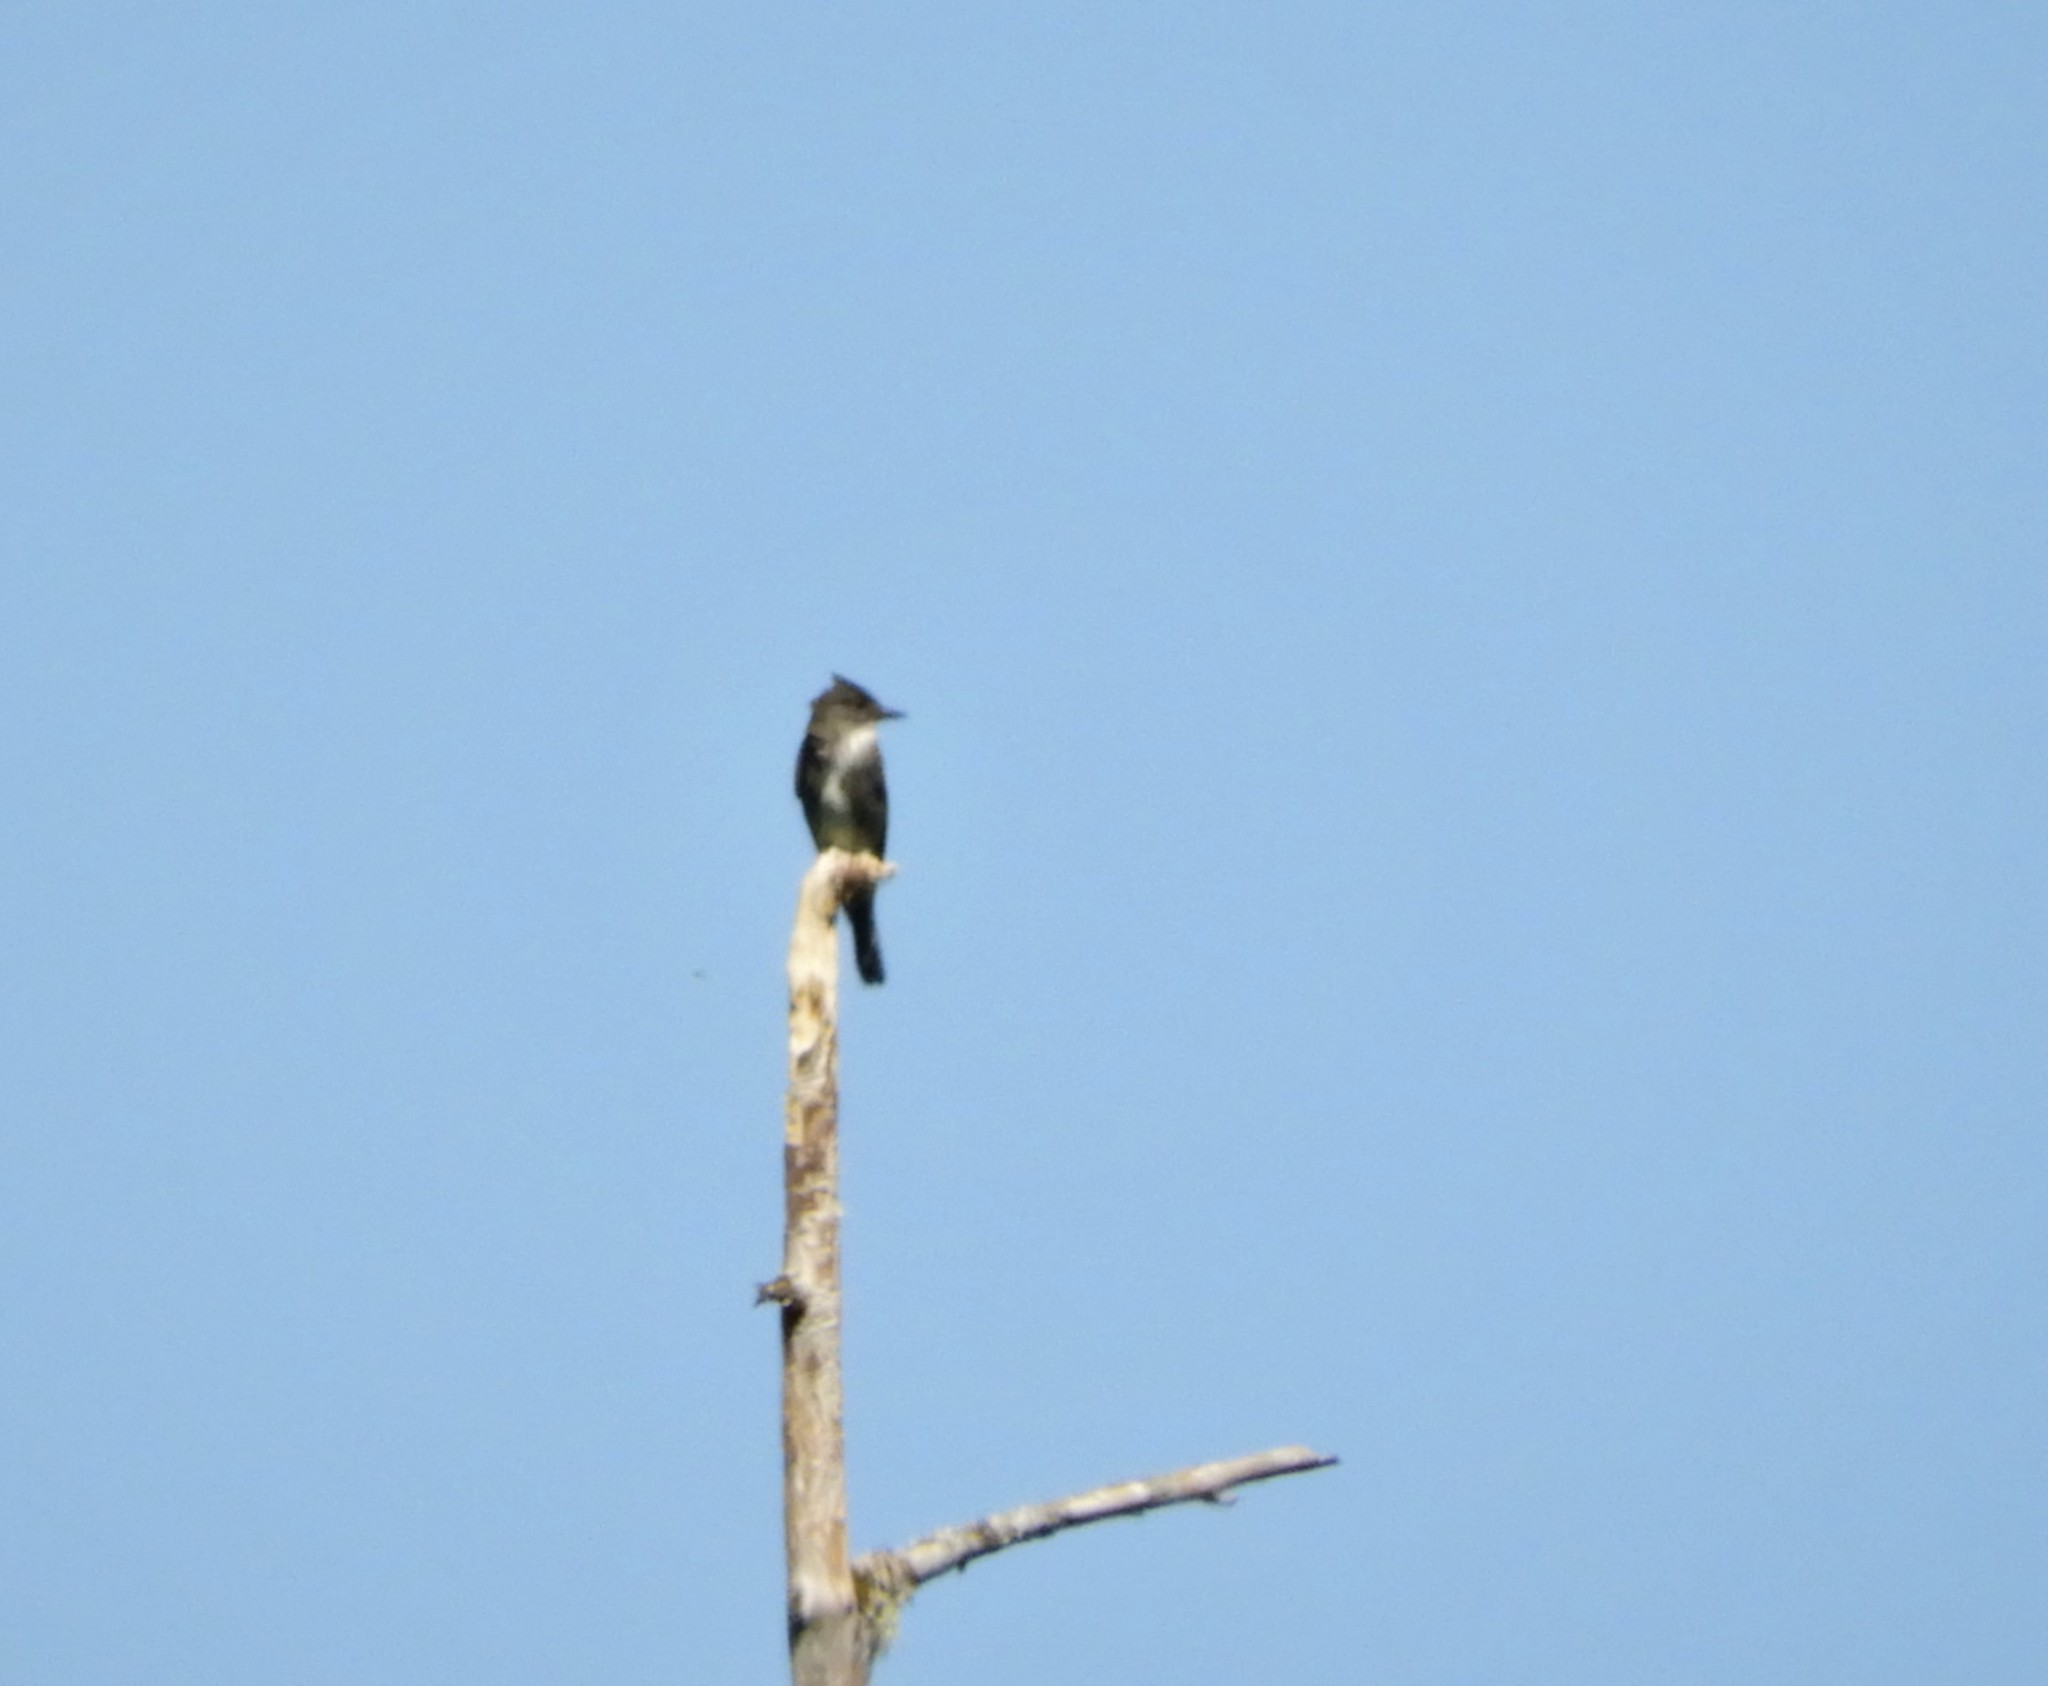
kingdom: Animalia
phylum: Chordata
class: Aves
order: Passeriformes
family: Tyrannidae
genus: Contopus
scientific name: Contopus cooperi
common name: Olive-sided flycatcher
